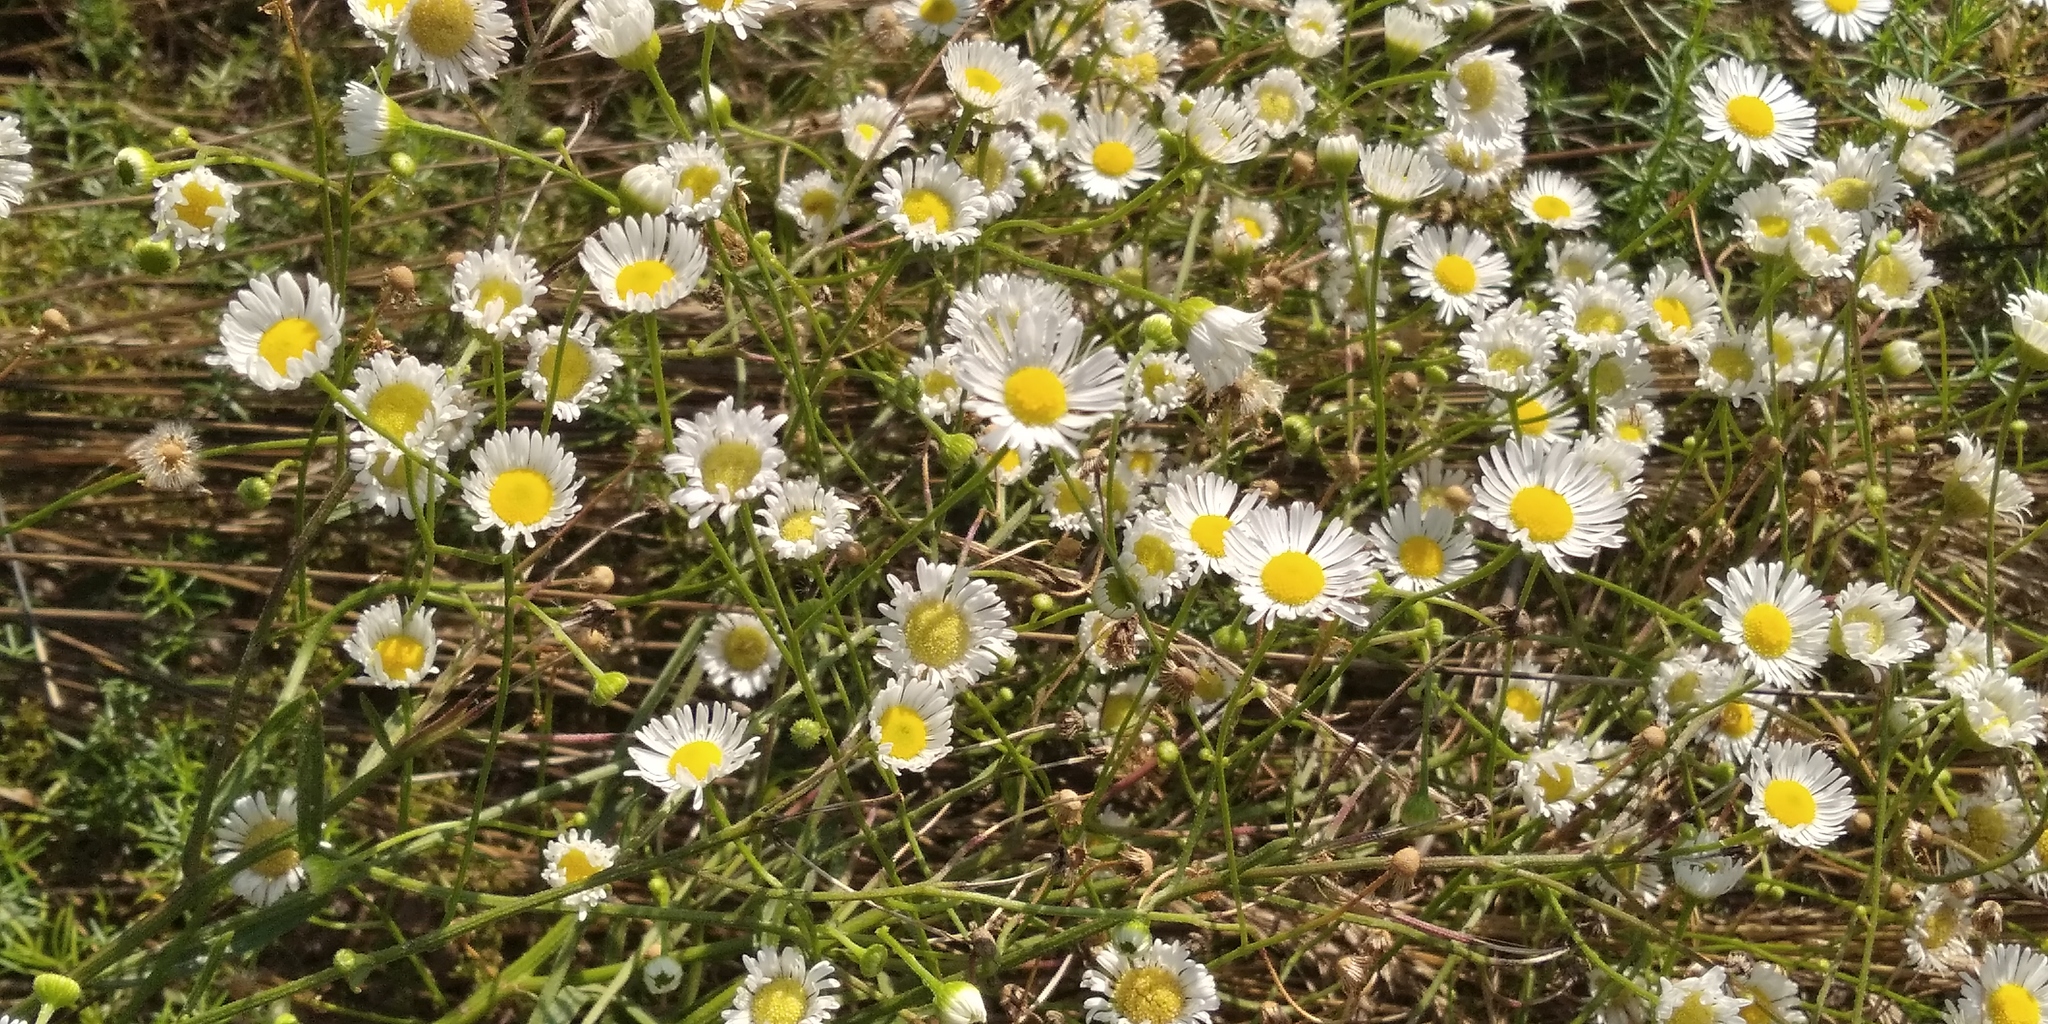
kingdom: Plantae
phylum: Tracheophyta
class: Magnoliopsida
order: Asterales
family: Asteraceae
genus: Erigeron
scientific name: Erigeron strigosus
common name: Common eastern fleabane
